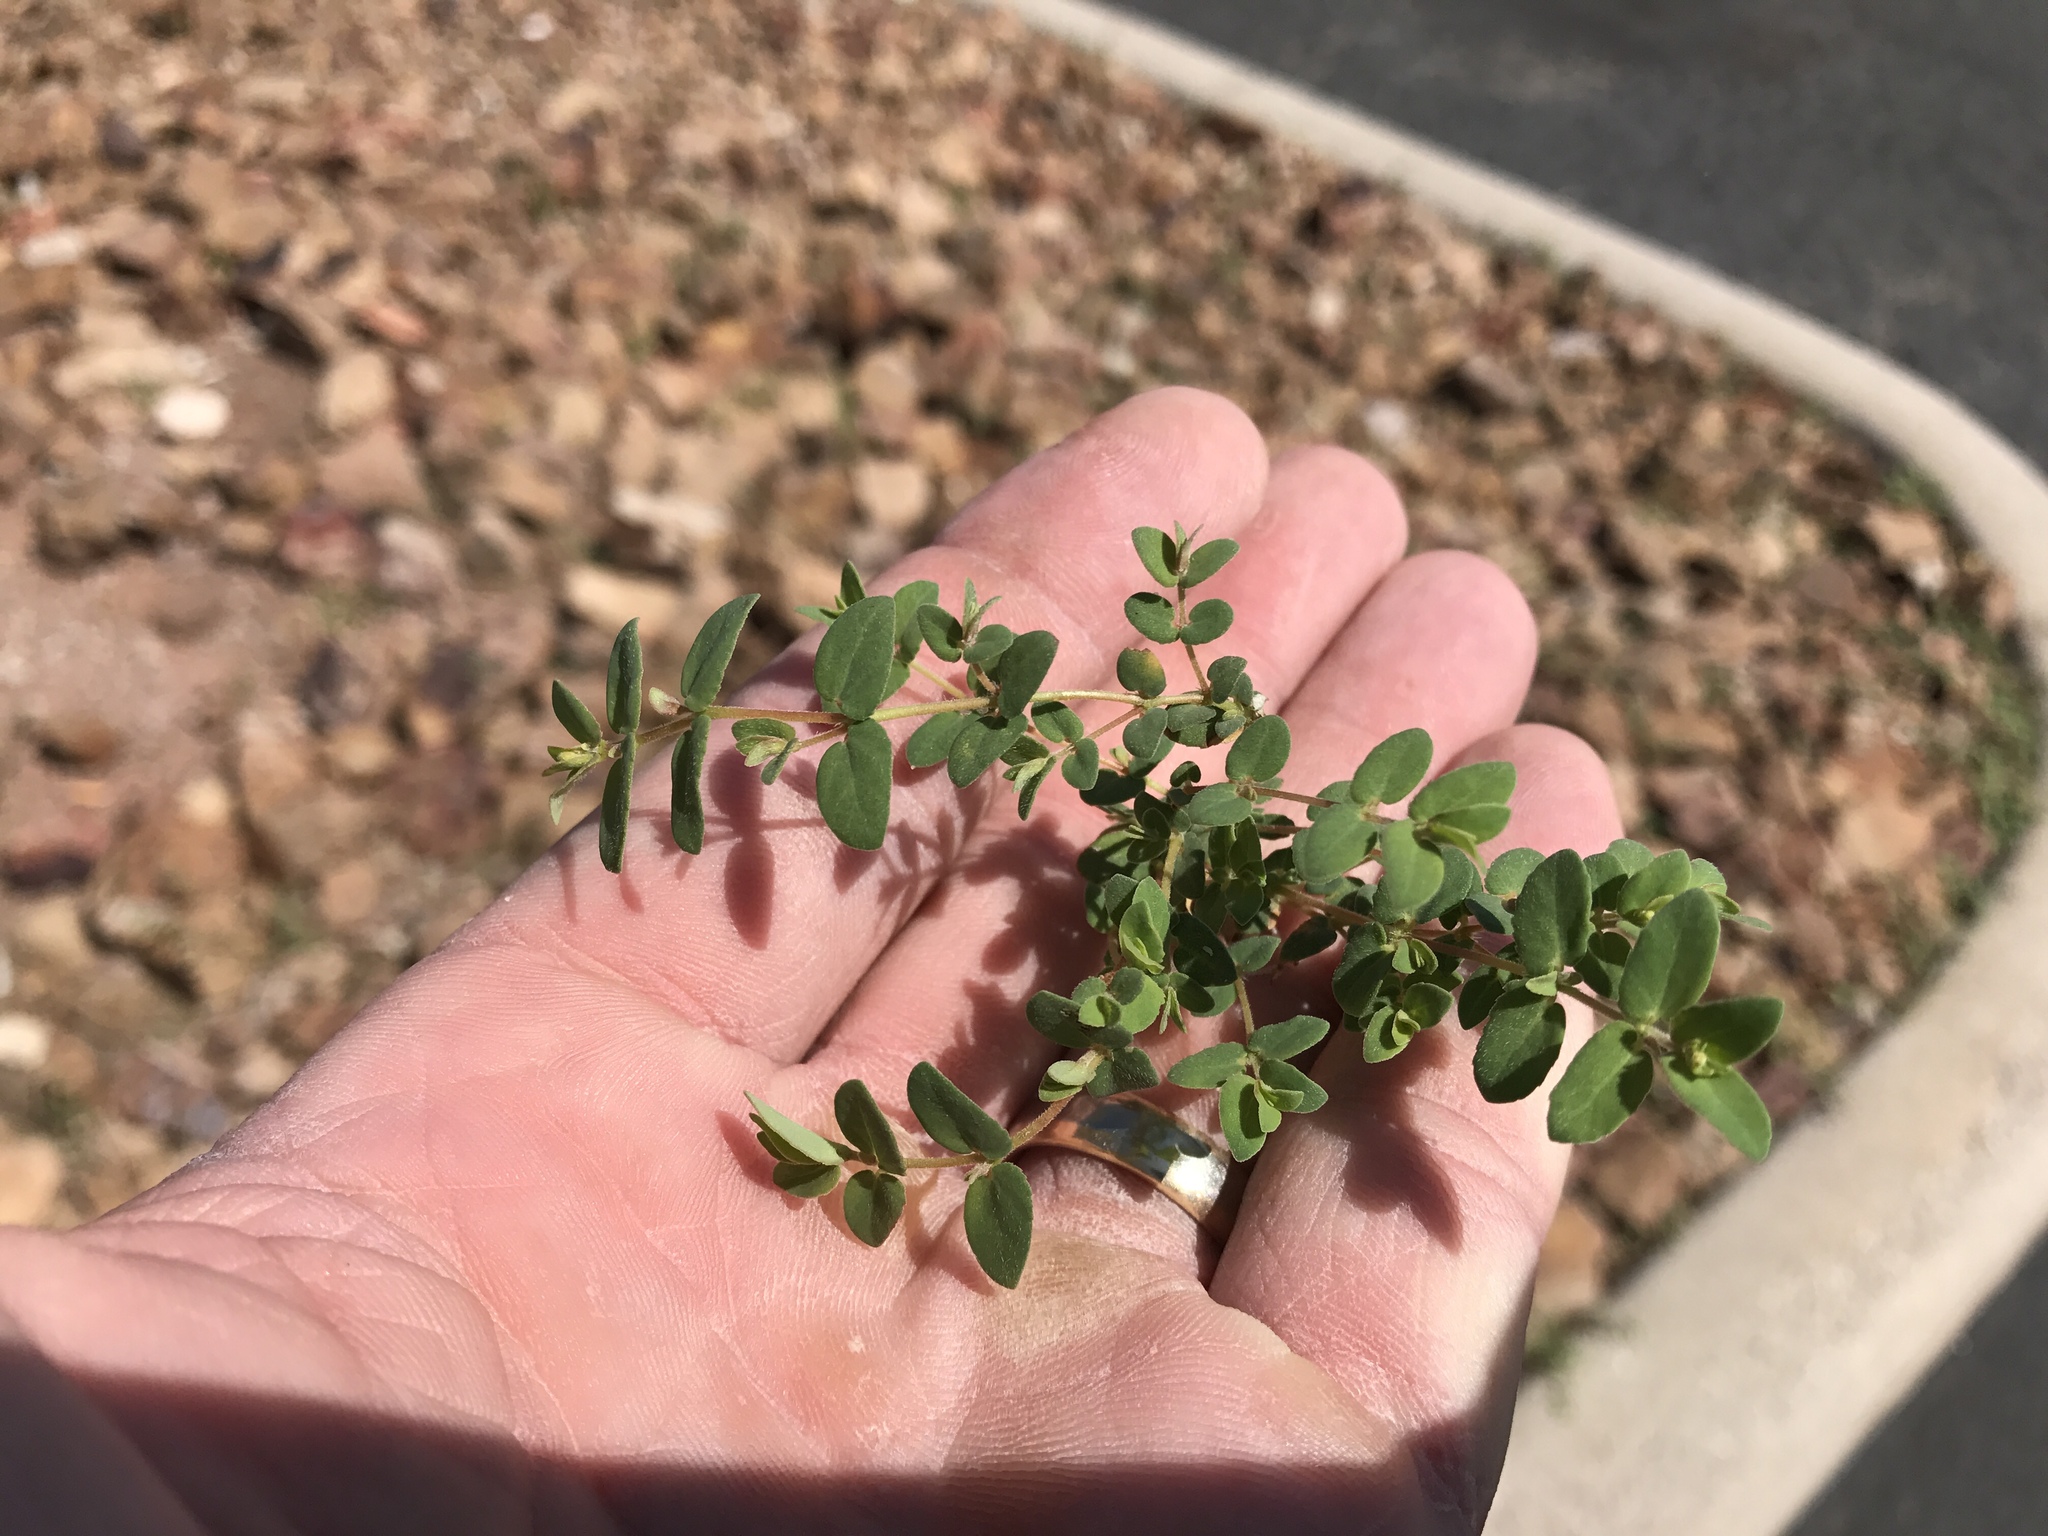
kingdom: Plantae
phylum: Tracheophyta
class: Magnoliopsida
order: Malpighiales
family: Euphorbiaceae
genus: Euphorbia
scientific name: Euphorbia capitellata
